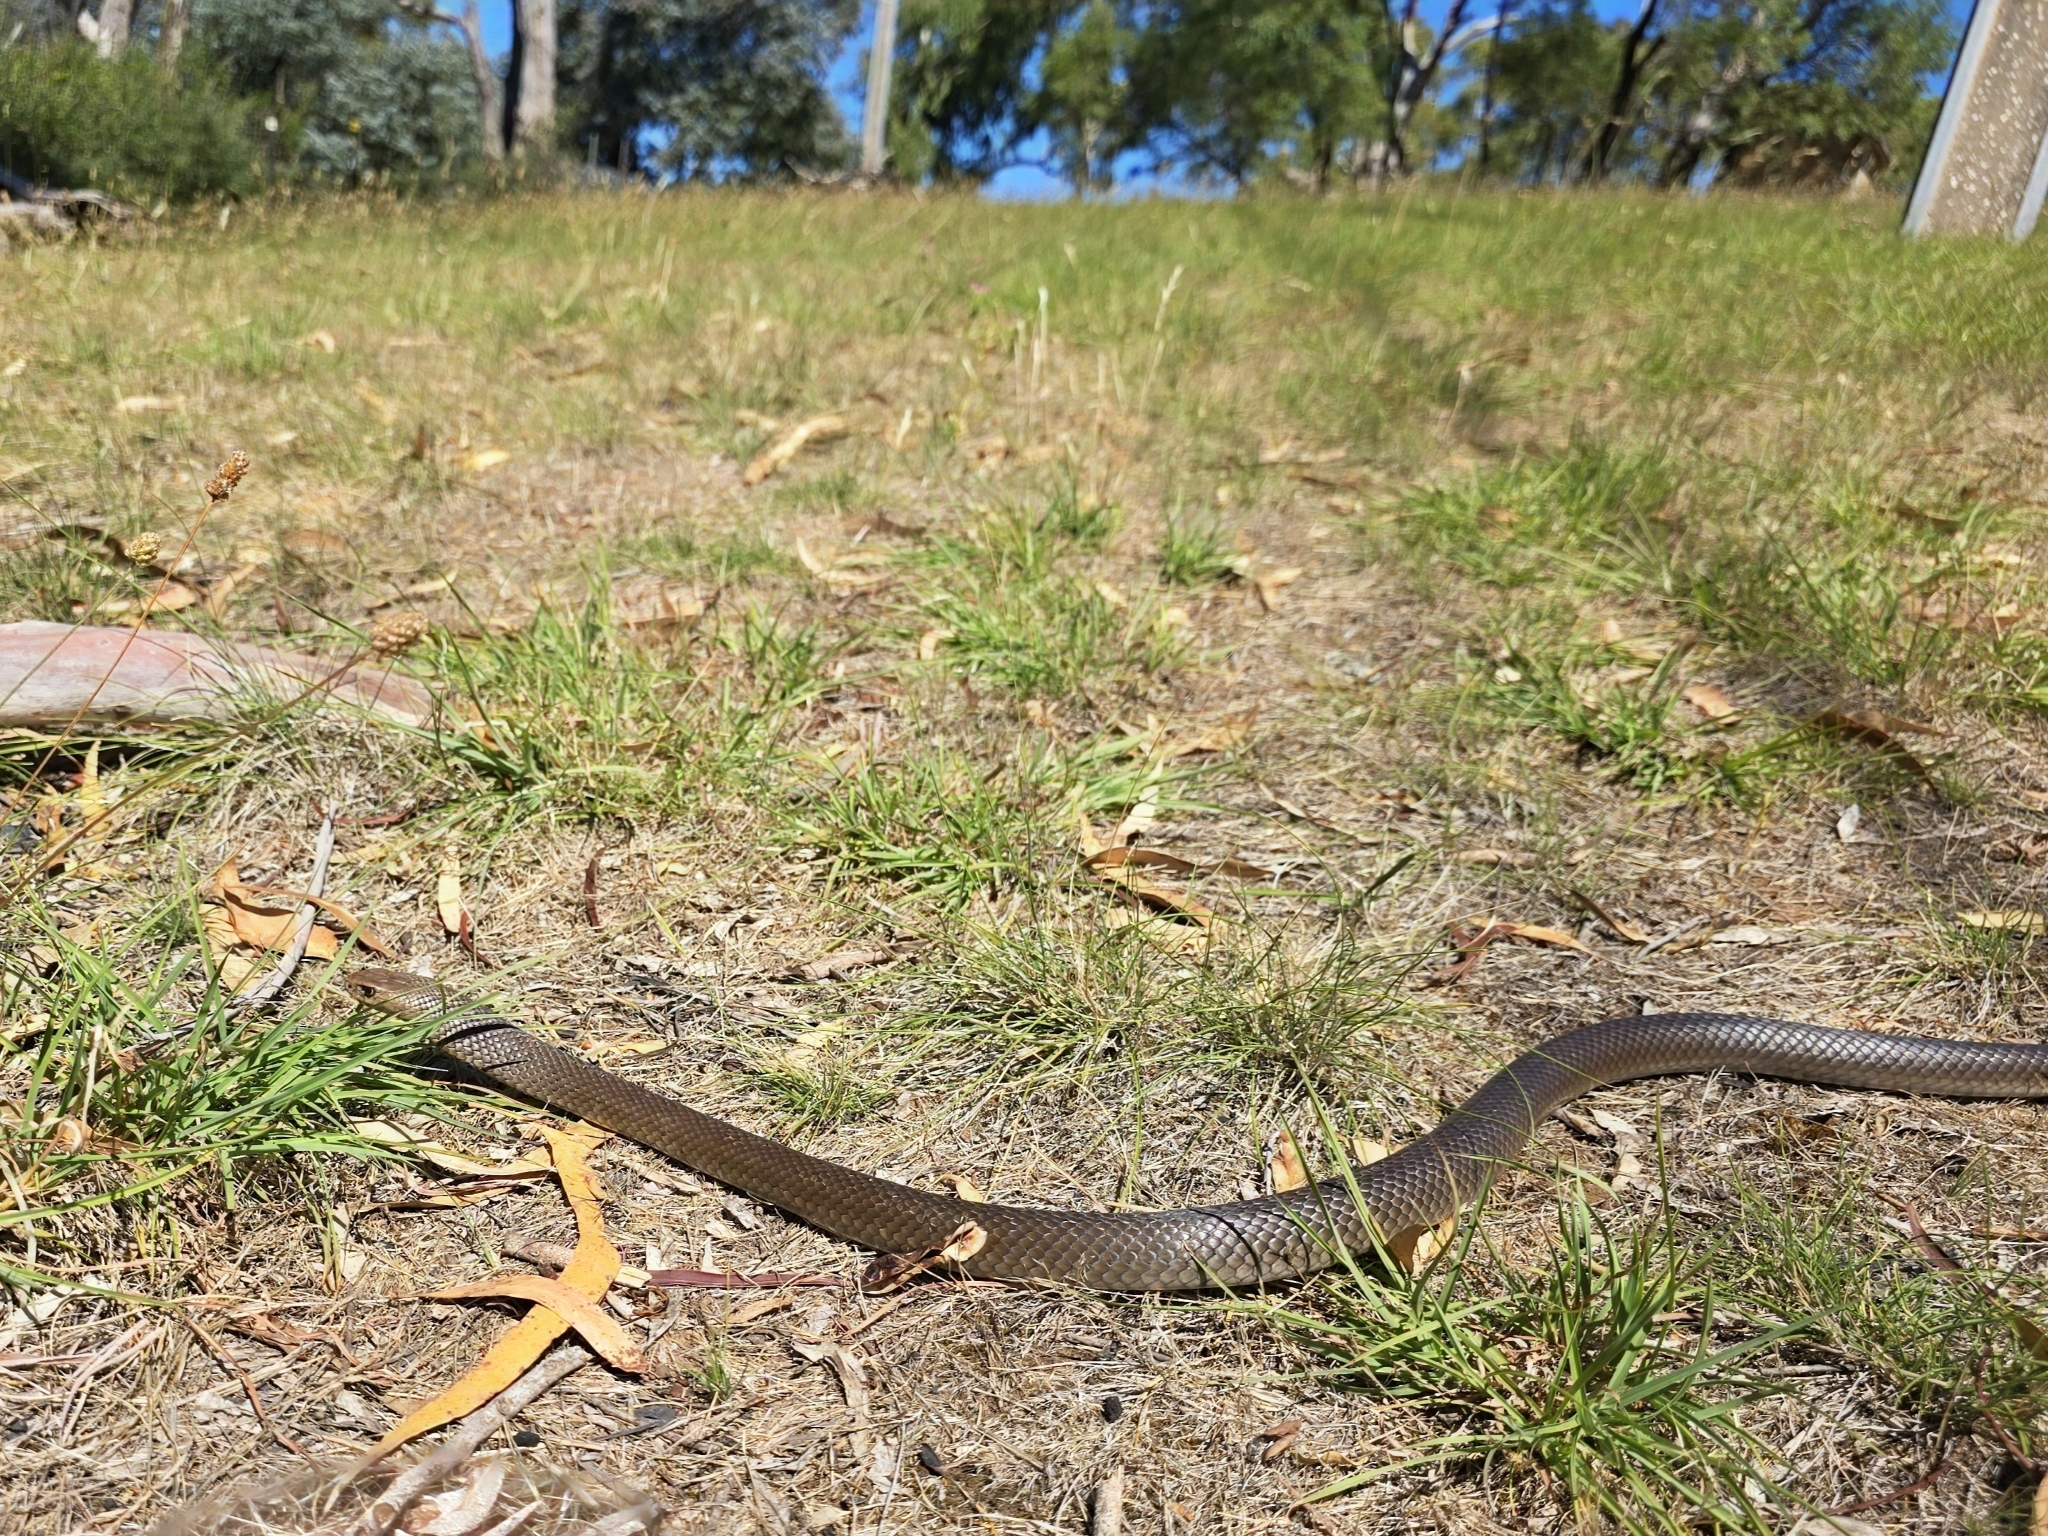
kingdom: Animalia
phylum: Chordata
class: Squamata
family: Elapidae
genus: Pseudonaja
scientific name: Pseudonaja textilis
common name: Eastern brown snake
